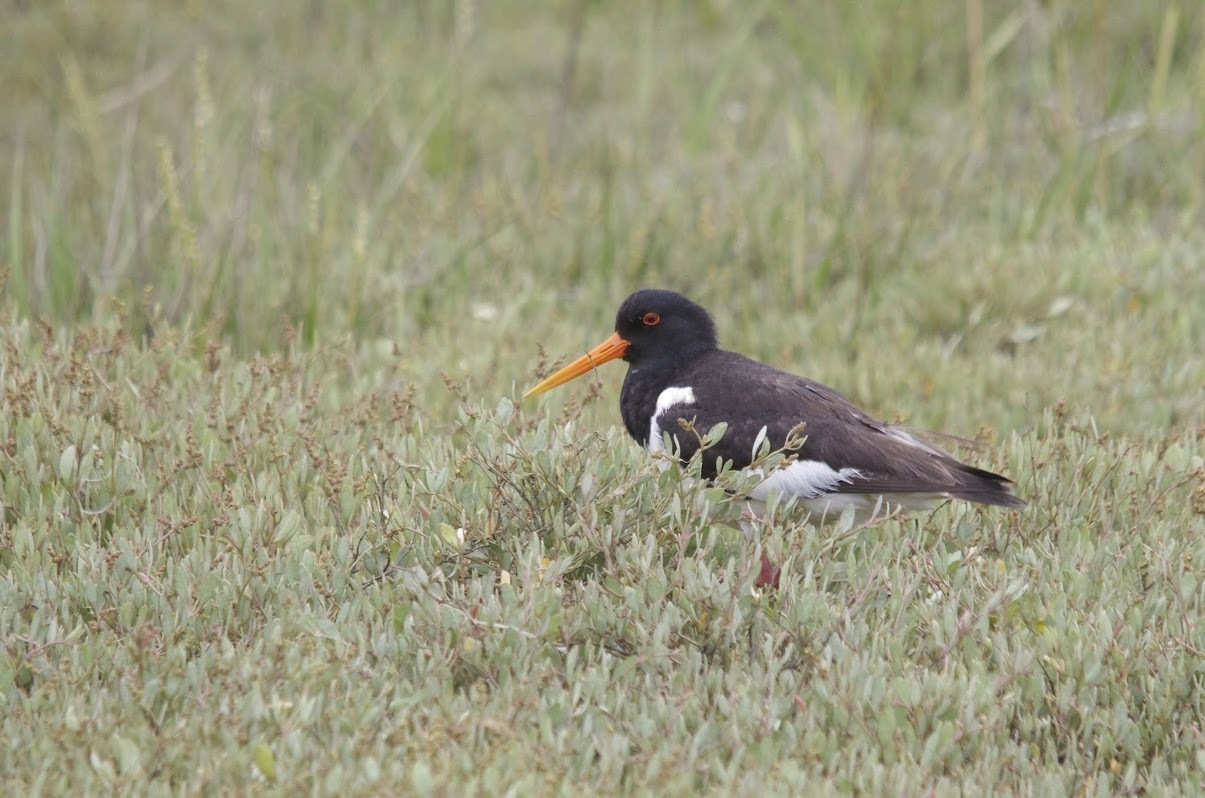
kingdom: Animalia
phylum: Chordata
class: Aves
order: Charadriiformes
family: Haematopodidae
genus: Haematopus
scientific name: Haematopus ostralegus
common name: Eurasian oystercatcher
